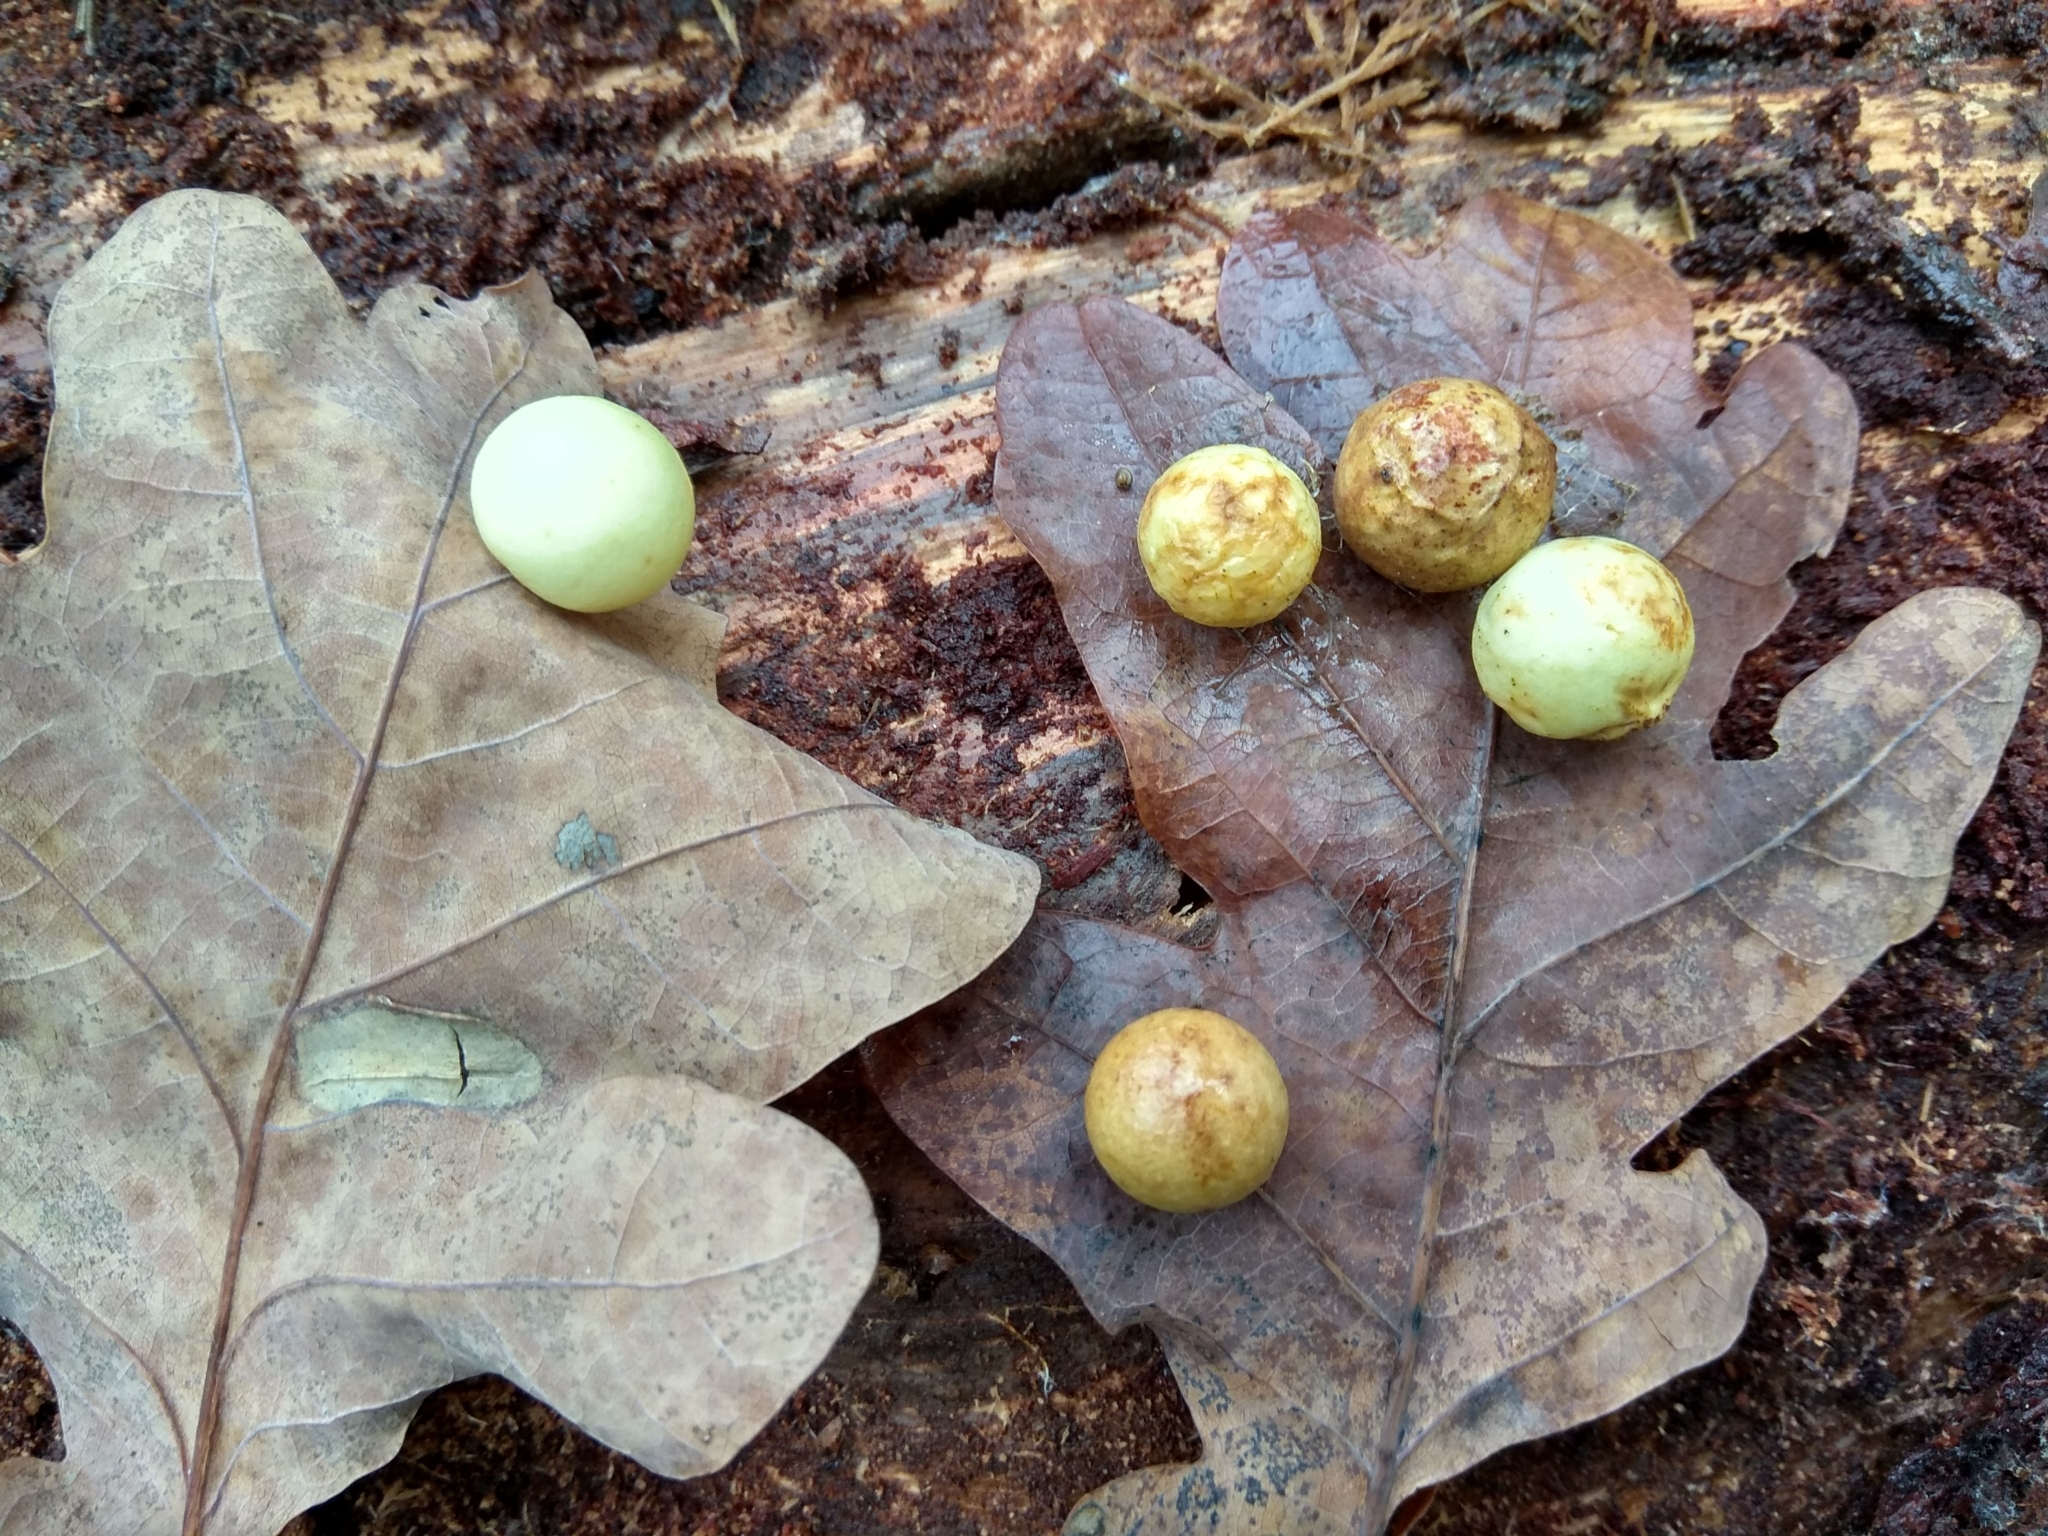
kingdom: Animalia
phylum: Arthropoda
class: Insecta
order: Hymenoptera
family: Cynipidae
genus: Cynips
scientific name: Cynips quercusfolii
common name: Cherry gall
